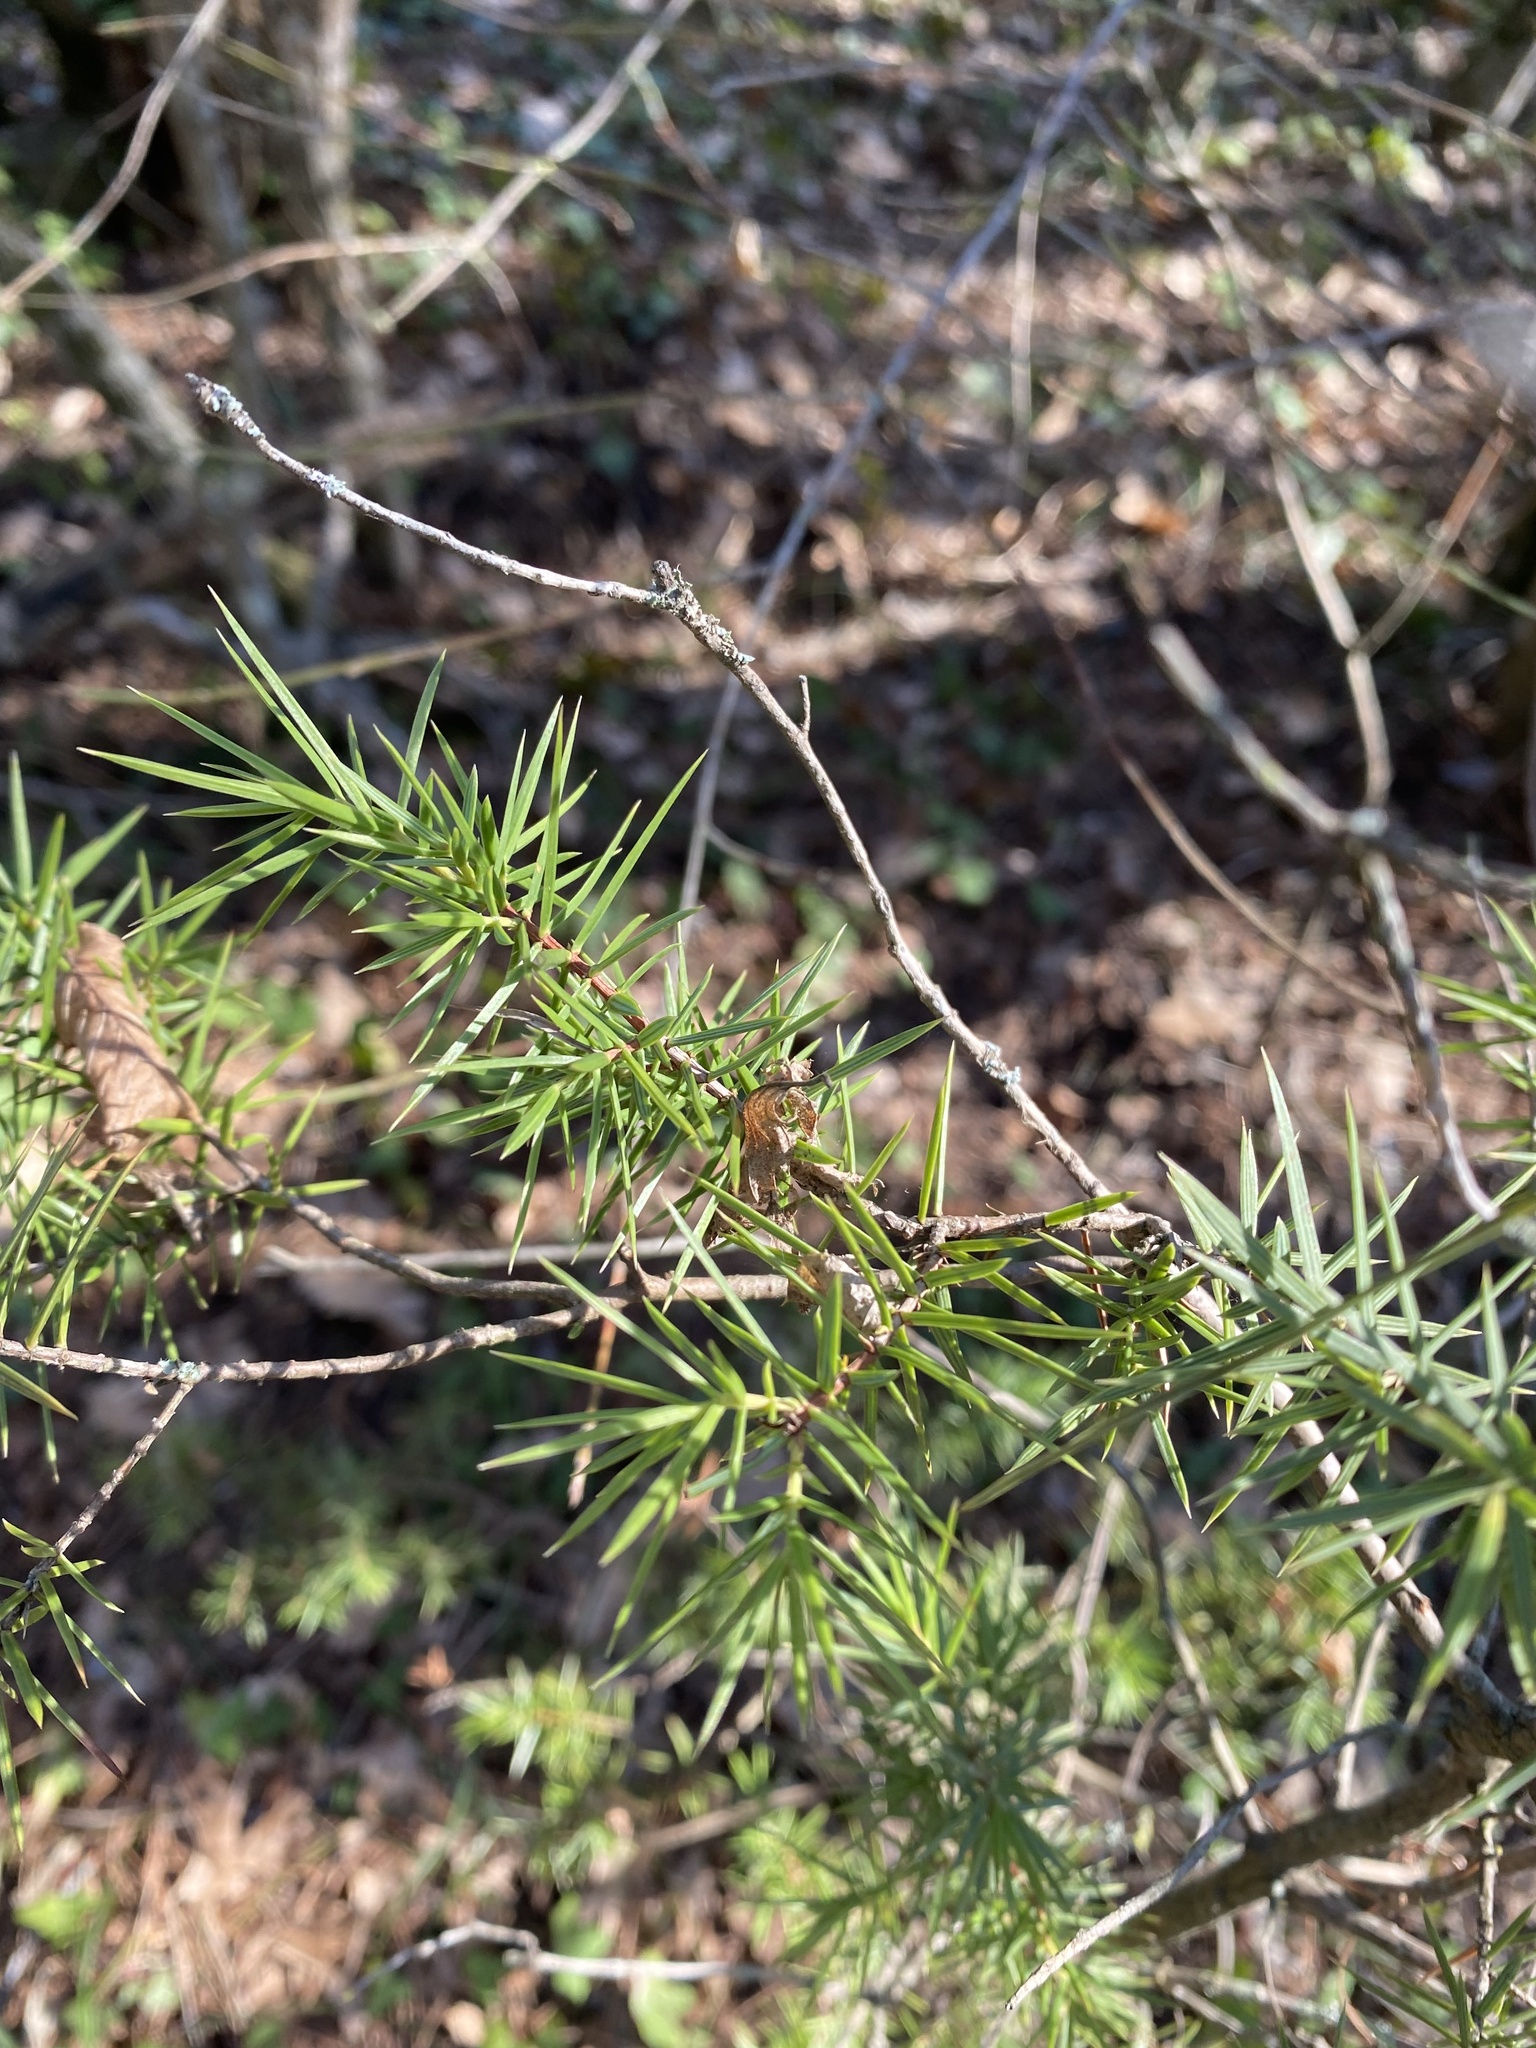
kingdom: Plantae
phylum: Tracheophyta
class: Pinopsida
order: Pinales
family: Cupressaceae
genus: Juniperus
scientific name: Juniperus oxycedrus
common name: Prickly juniper
